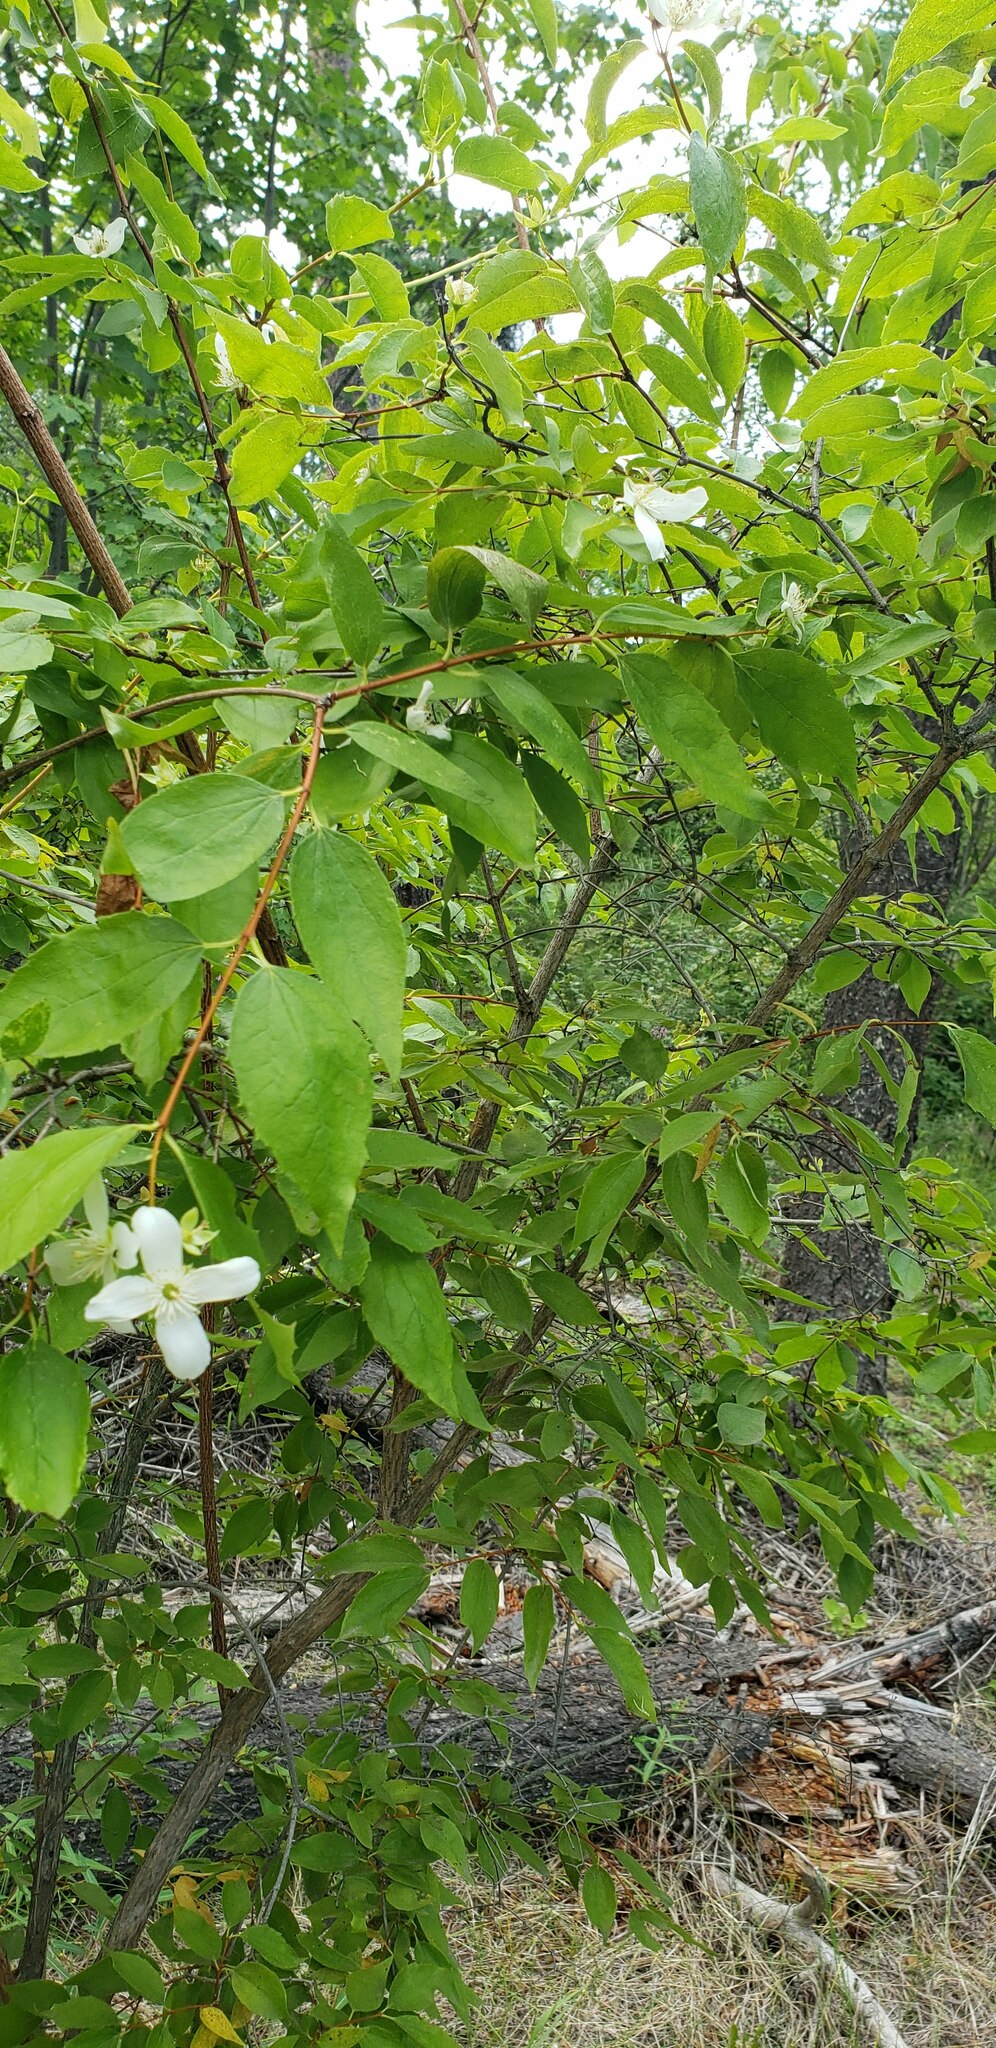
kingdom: Plantae
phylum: Tracheophyta
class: Magnoliopsida
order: Cornales
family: Hydrangeaceae
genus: Philadelphus
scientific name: Philadelphus lewisii
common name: Lewis's mock orange
